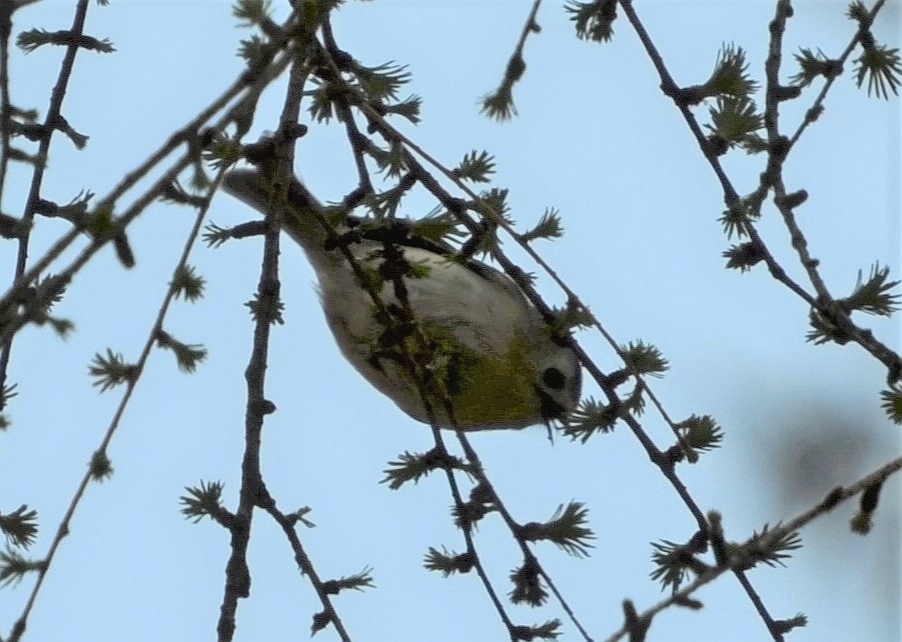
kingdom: Animalia
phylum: Chordata
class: Aves
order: Passeriformes
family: Regulidae
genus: Regulus
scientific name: Regulus regulus
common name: Goldcrest
